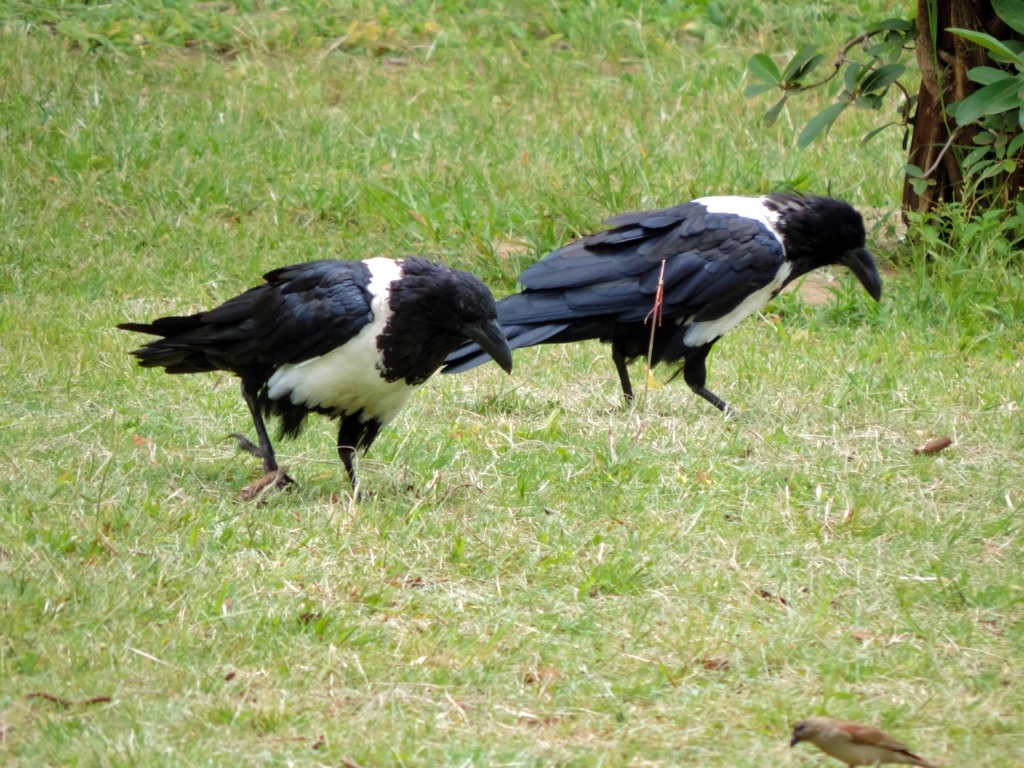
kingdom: Animalia
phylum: Chordata
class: Aves
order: Passeriformes
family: Corvidae
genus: Corvus
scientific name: Corvus albus
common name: Pied crow
